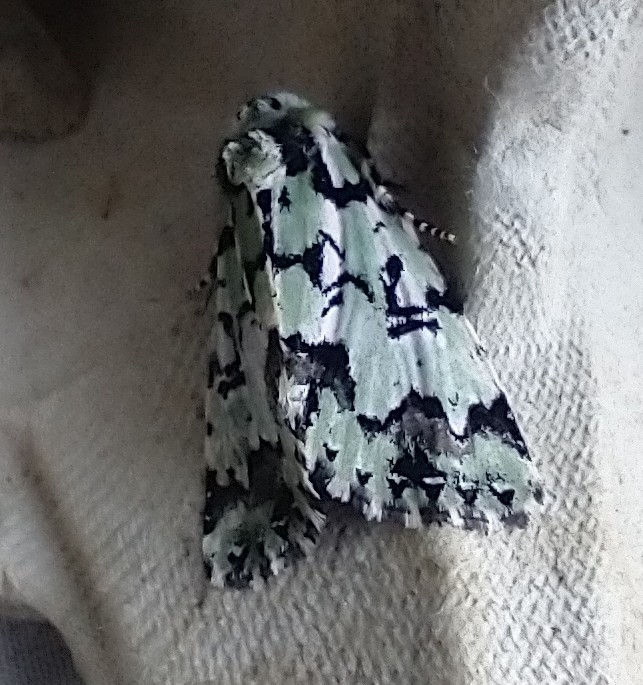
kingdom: Animalia
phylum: Arthropoda
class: Insecta
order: Lepidoptera
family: Noctuidae
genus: Moma
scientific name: Moma alpium
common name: Scarce merveille du jour
